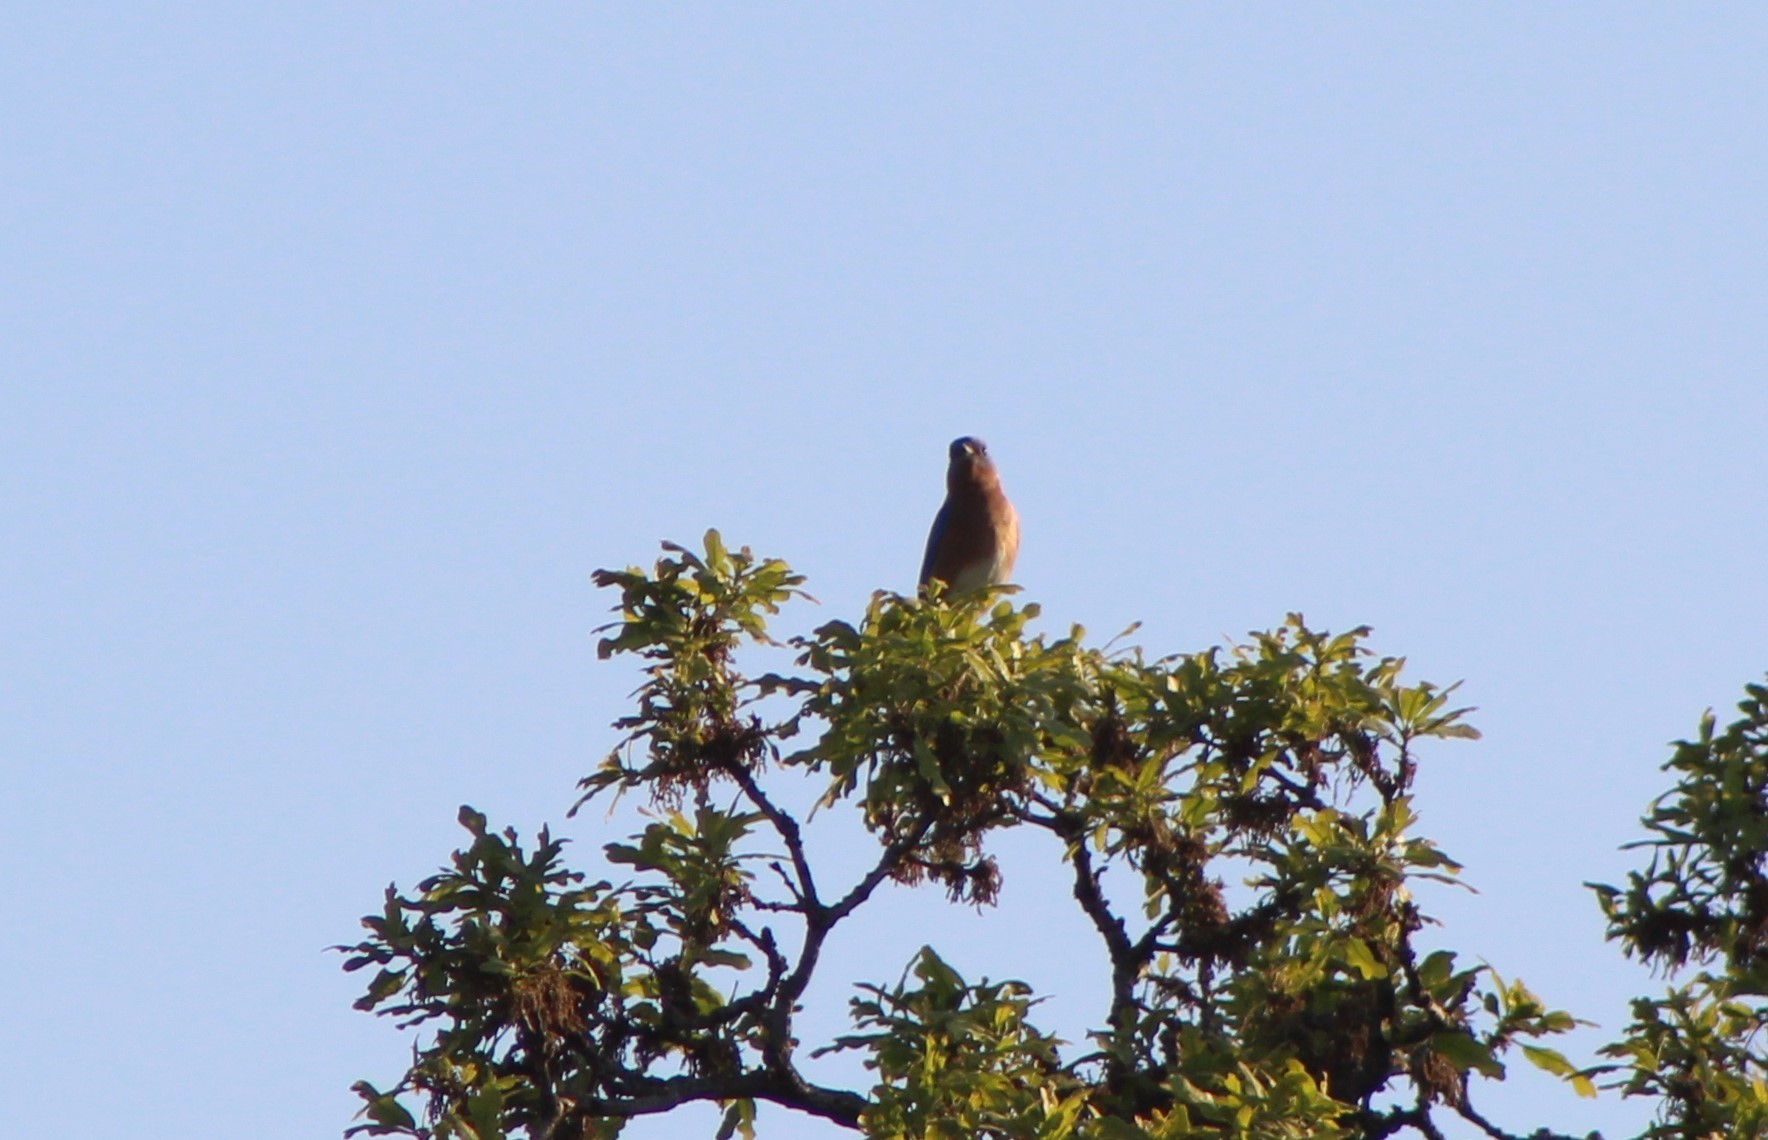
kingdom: Animalia
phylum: Chordata
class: Aves
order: Passeriformes
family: Turdidae
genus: Sialia
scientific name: Sialia sialis
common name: Eastern bluebird
